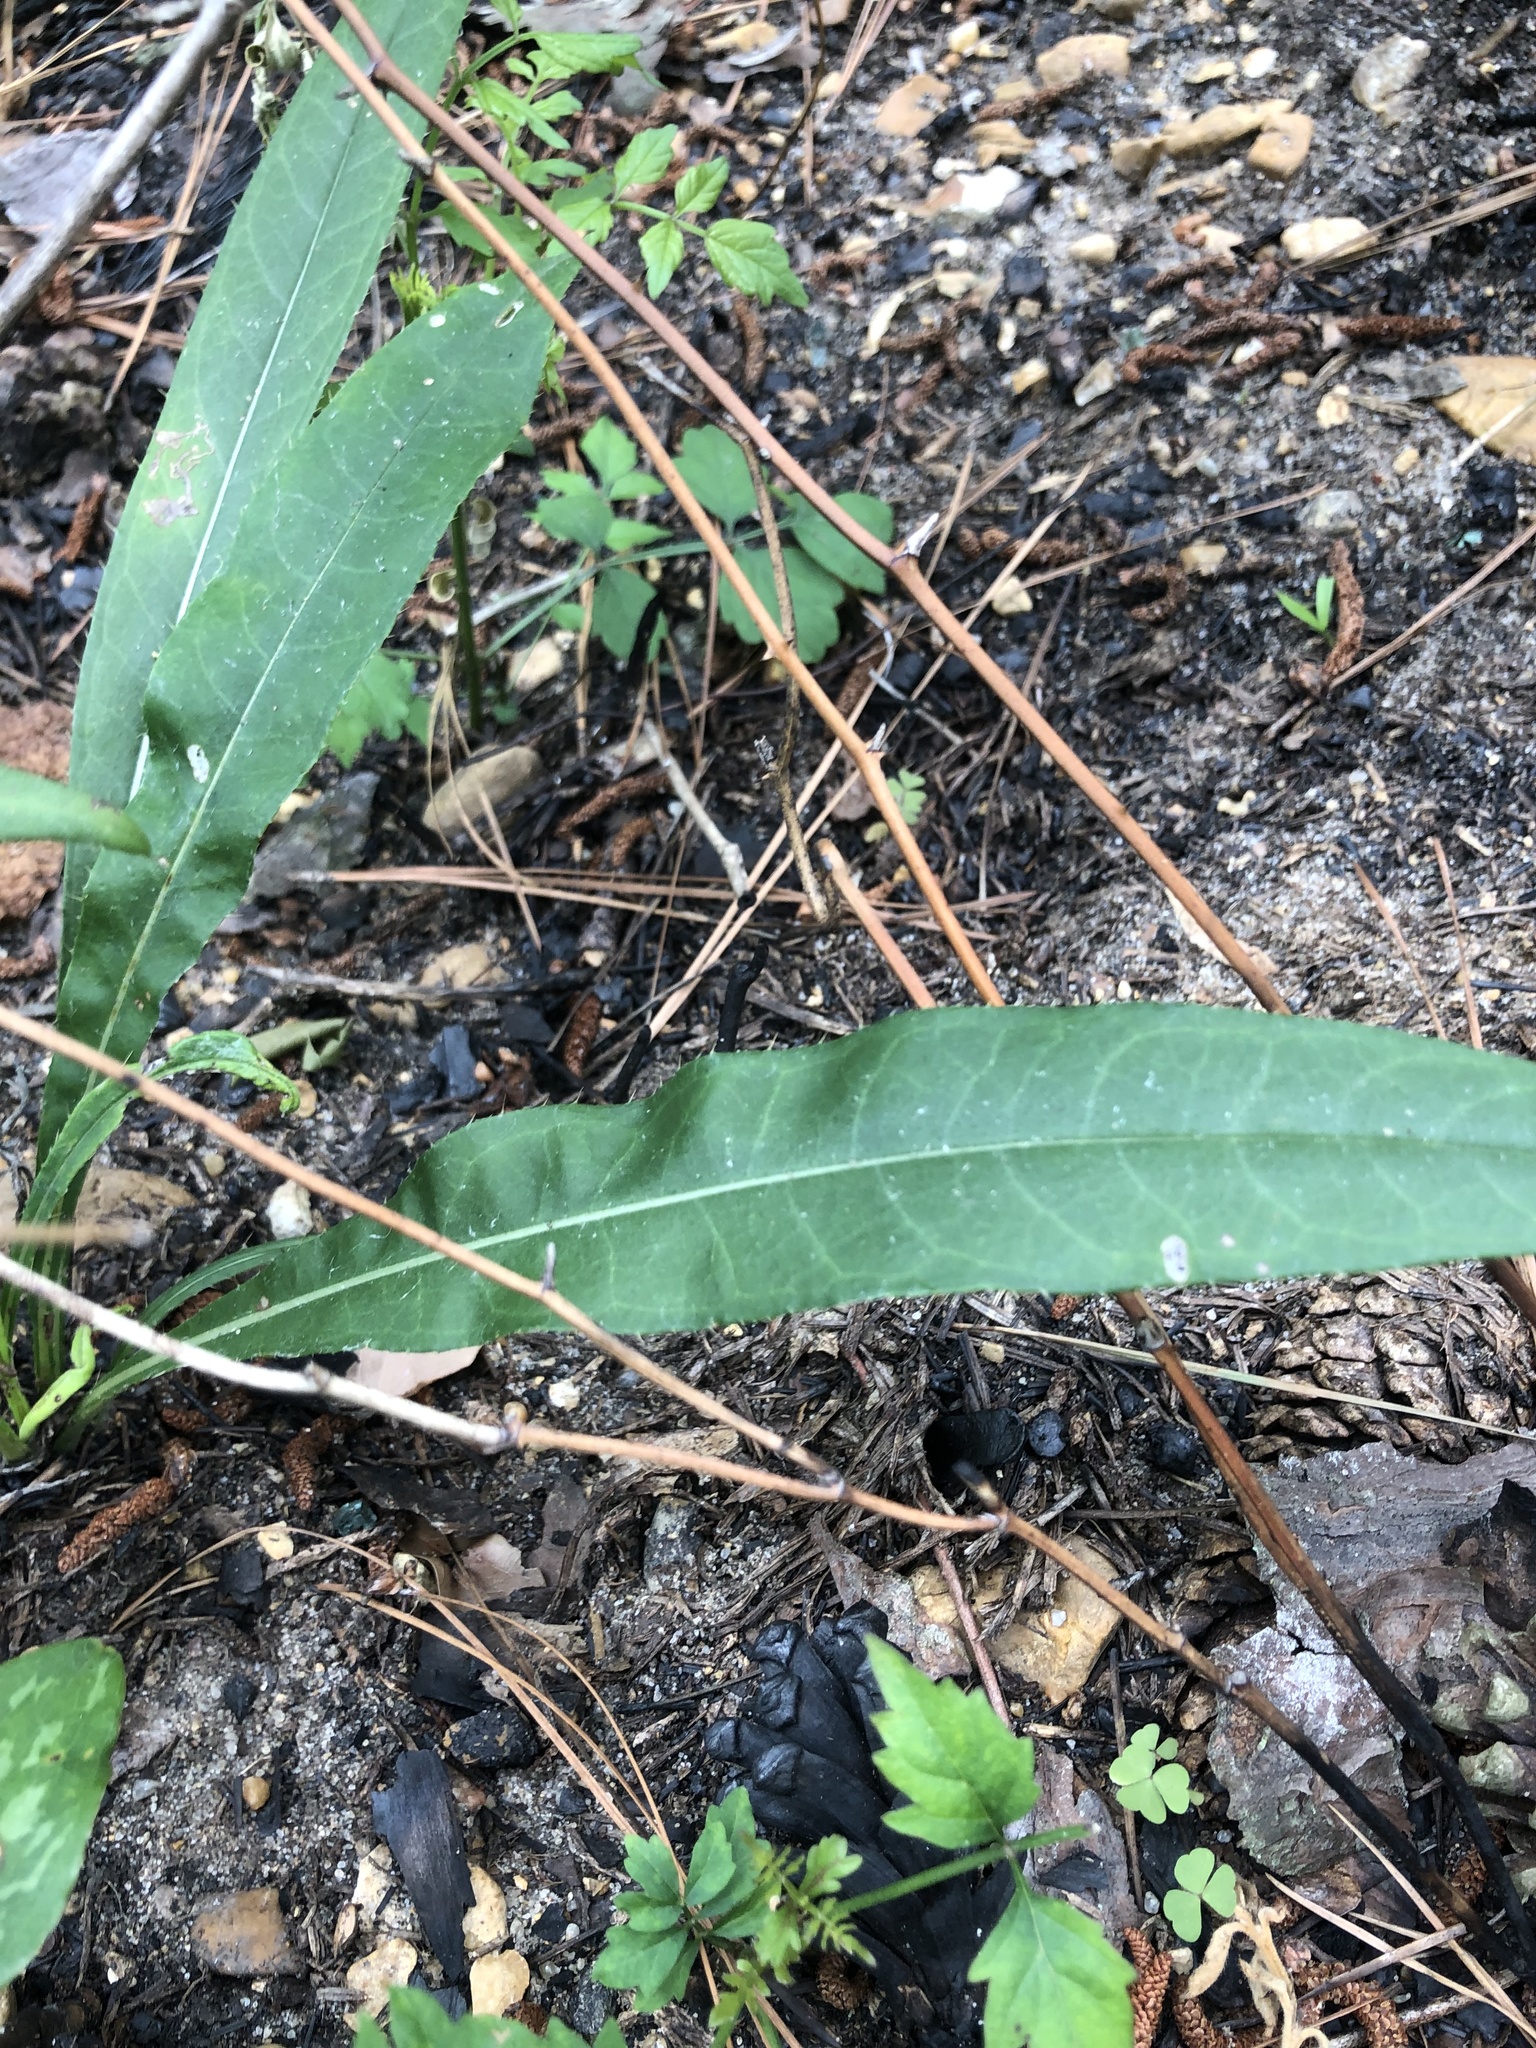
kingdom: Plantae
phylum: Tracheophyta
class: Magnoliopsida
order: Asterales
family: Asteraceae
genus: Cirsium
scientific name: Cirsium carolinianum
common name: Carolina thistle
